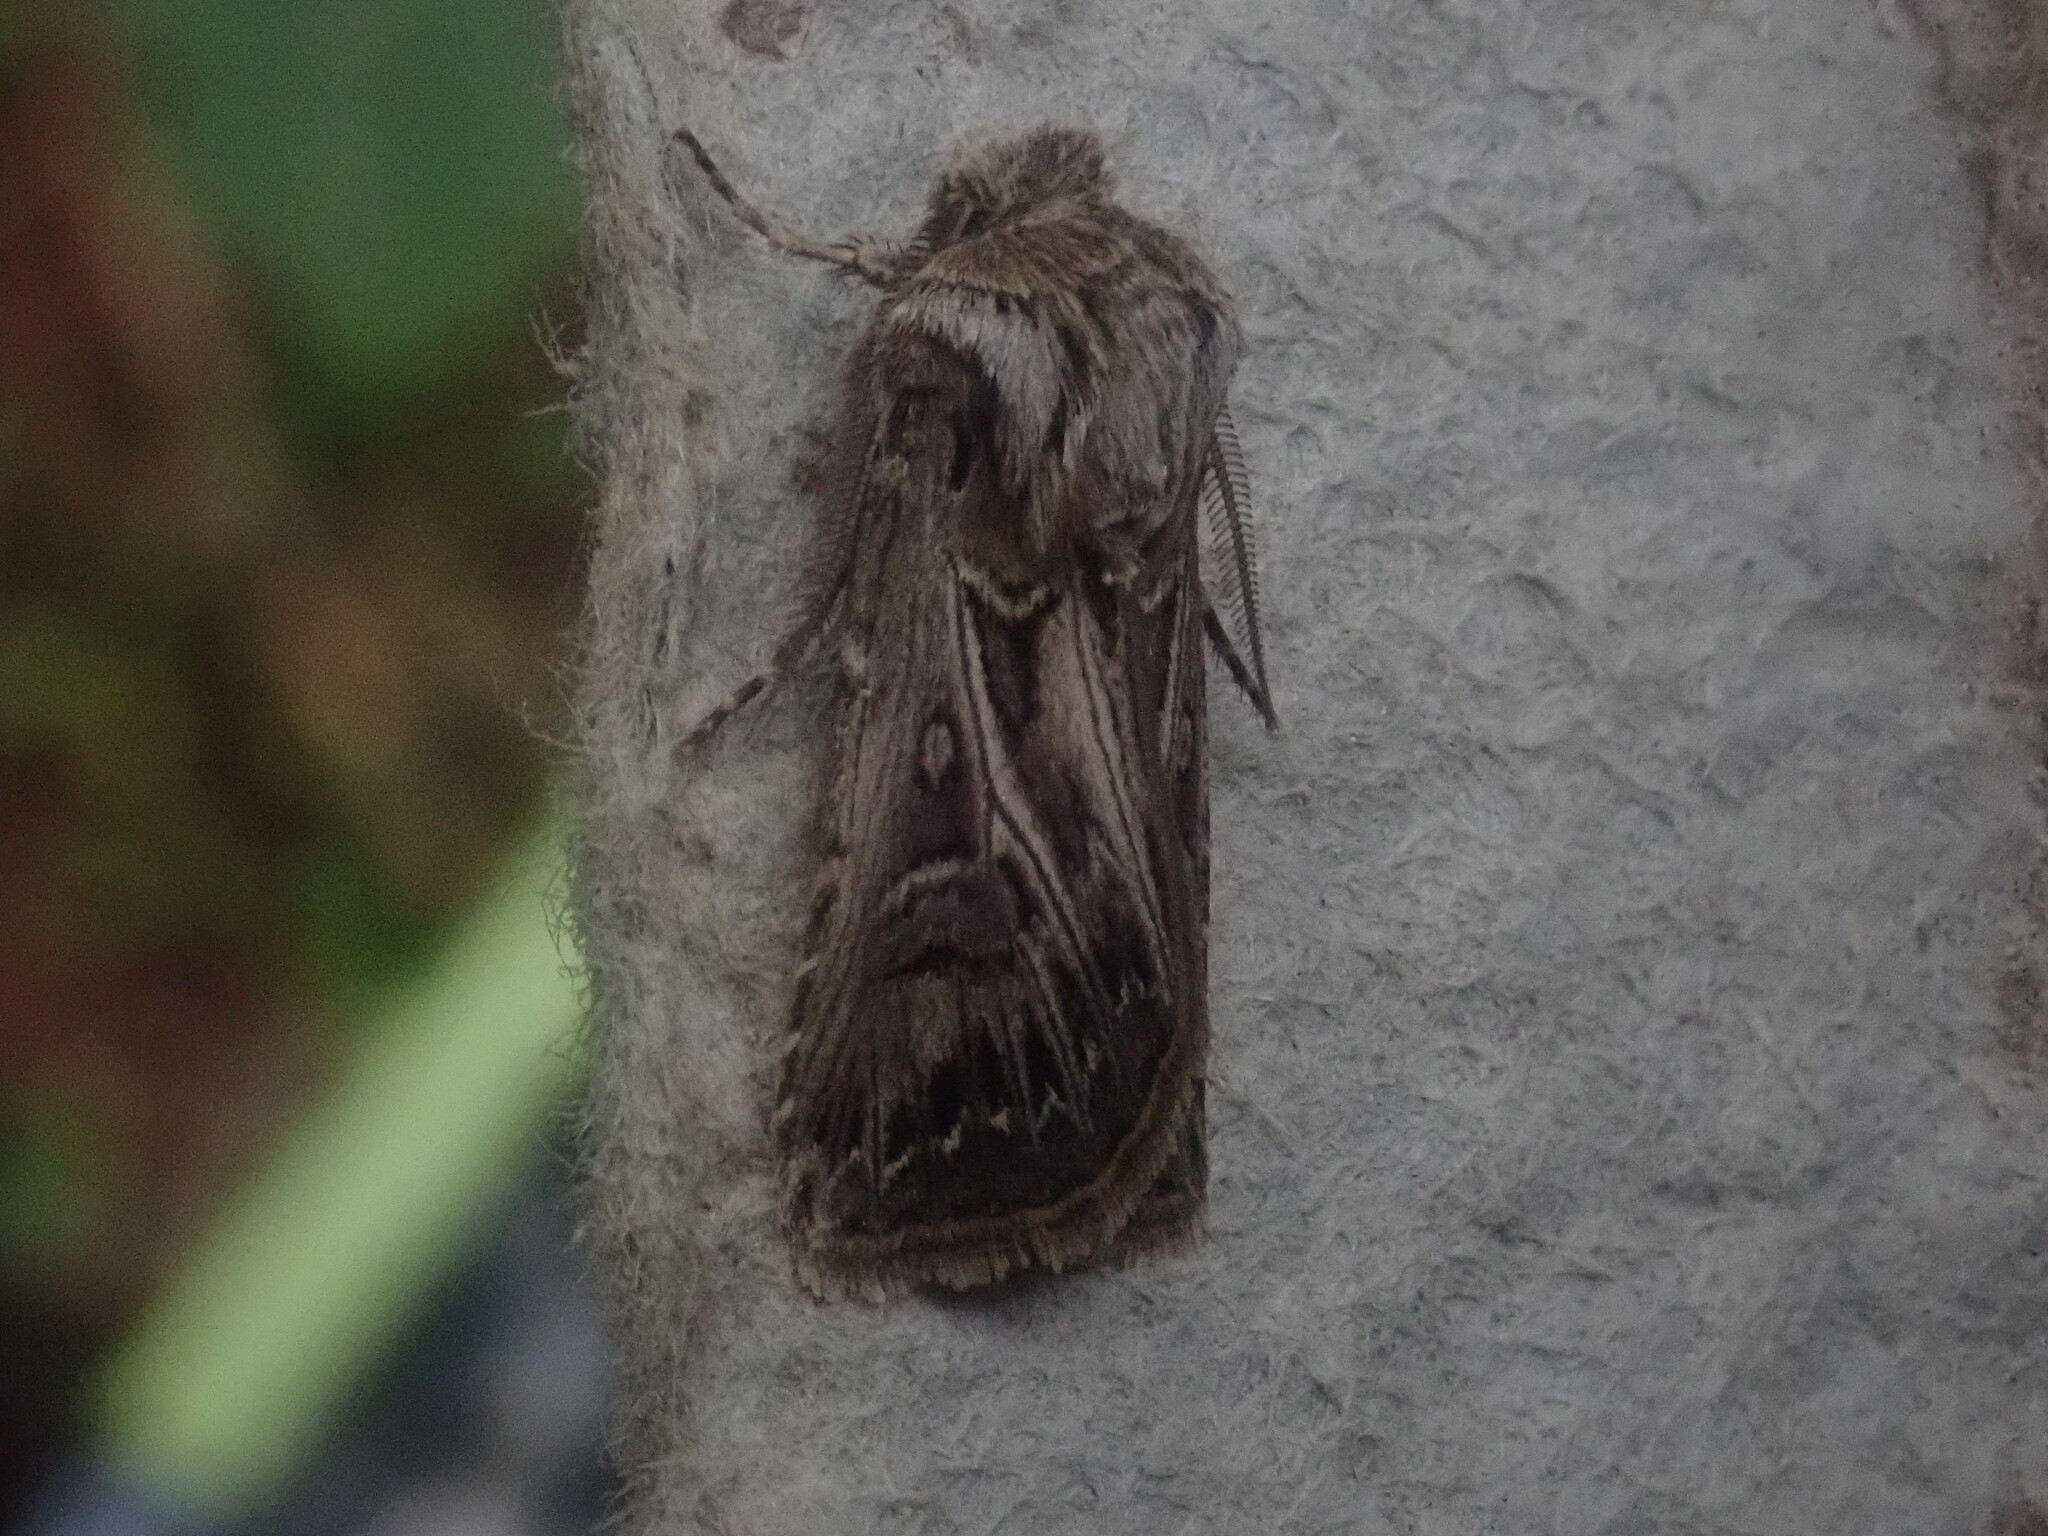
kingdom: Animalia
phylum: Arthropoda
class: Insecta
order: Lepidoptera
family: Noctuidae
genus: Agrotis
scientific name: Agrotis gladiaria
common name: Claybacked cutworm
